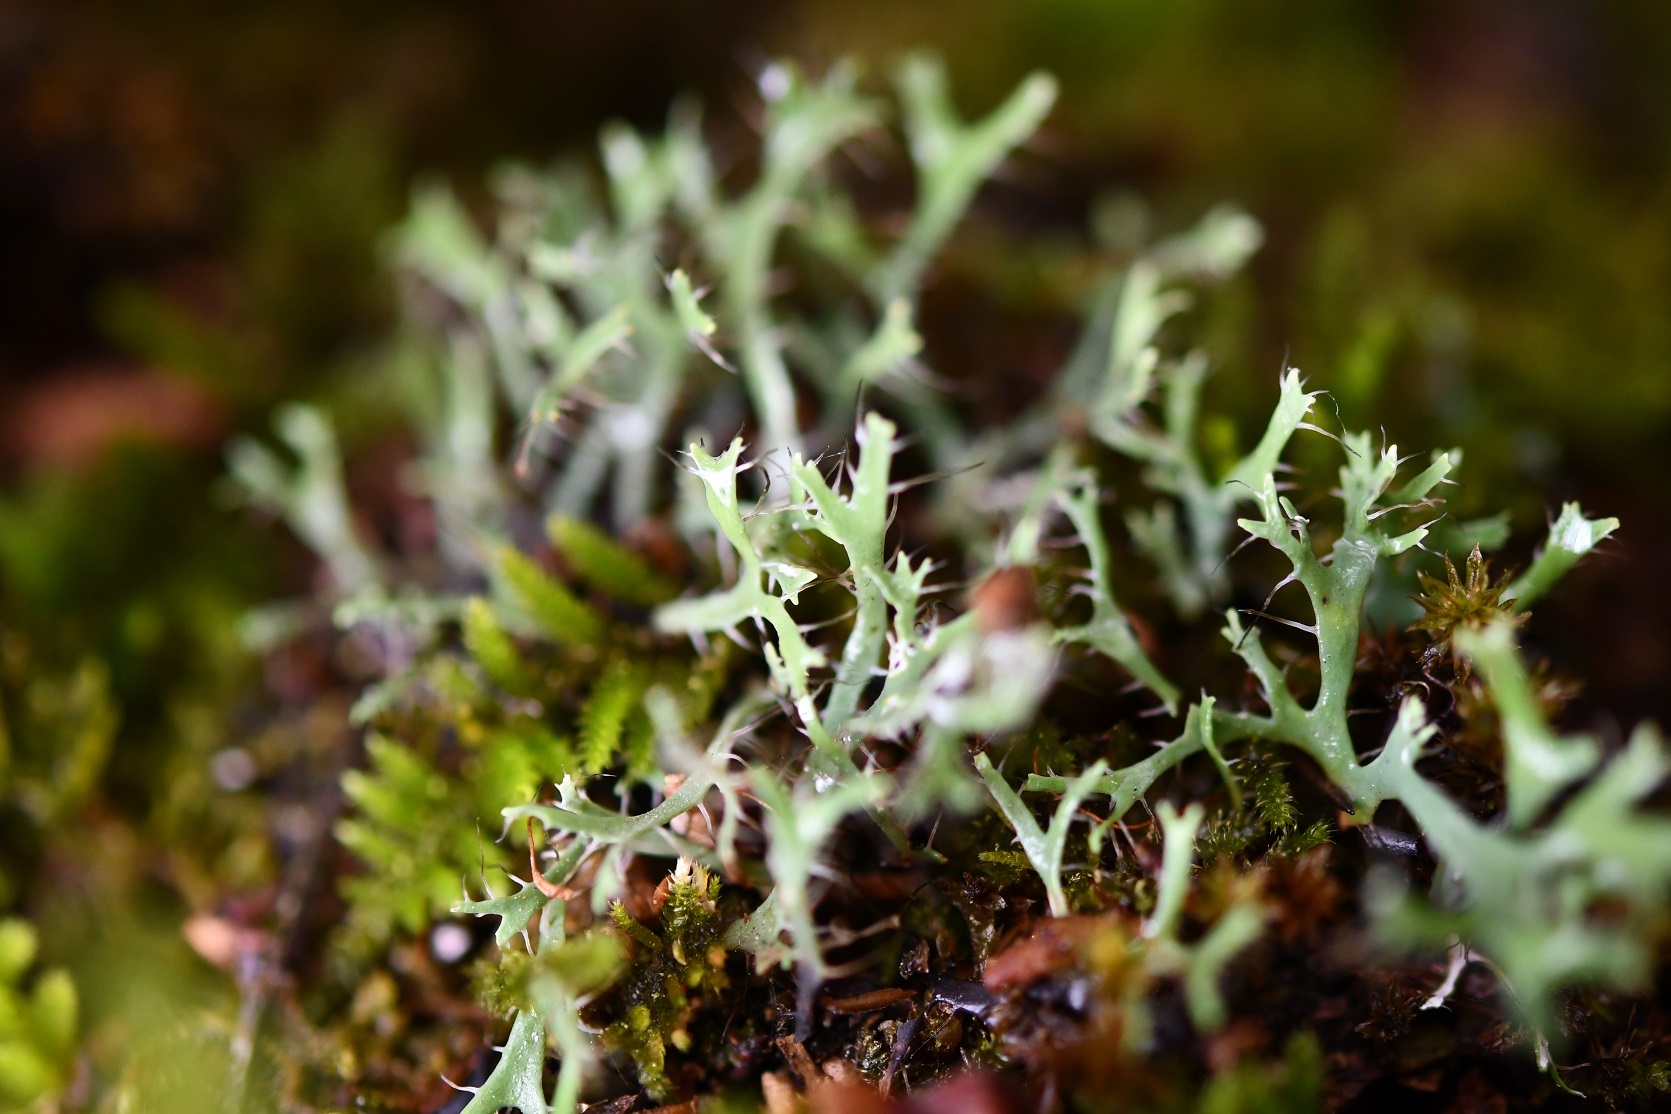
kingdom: Fungi
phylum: Ascomycota
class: Lecanoromycetes
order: Caliciales
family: Physciaceae
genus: Leucodermia
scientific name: Leucodermia leucomelos
